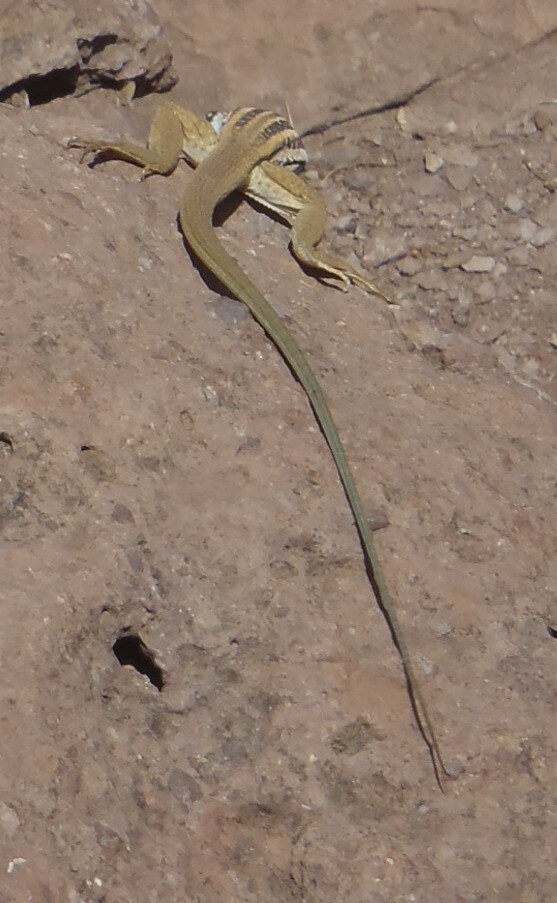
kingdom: Animalia
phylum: Chordata
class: Squamata
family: Teiidae
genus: Aspidoscelis
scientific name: Aspidoscelis scalaris
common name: Rusty-rumped whiptail
